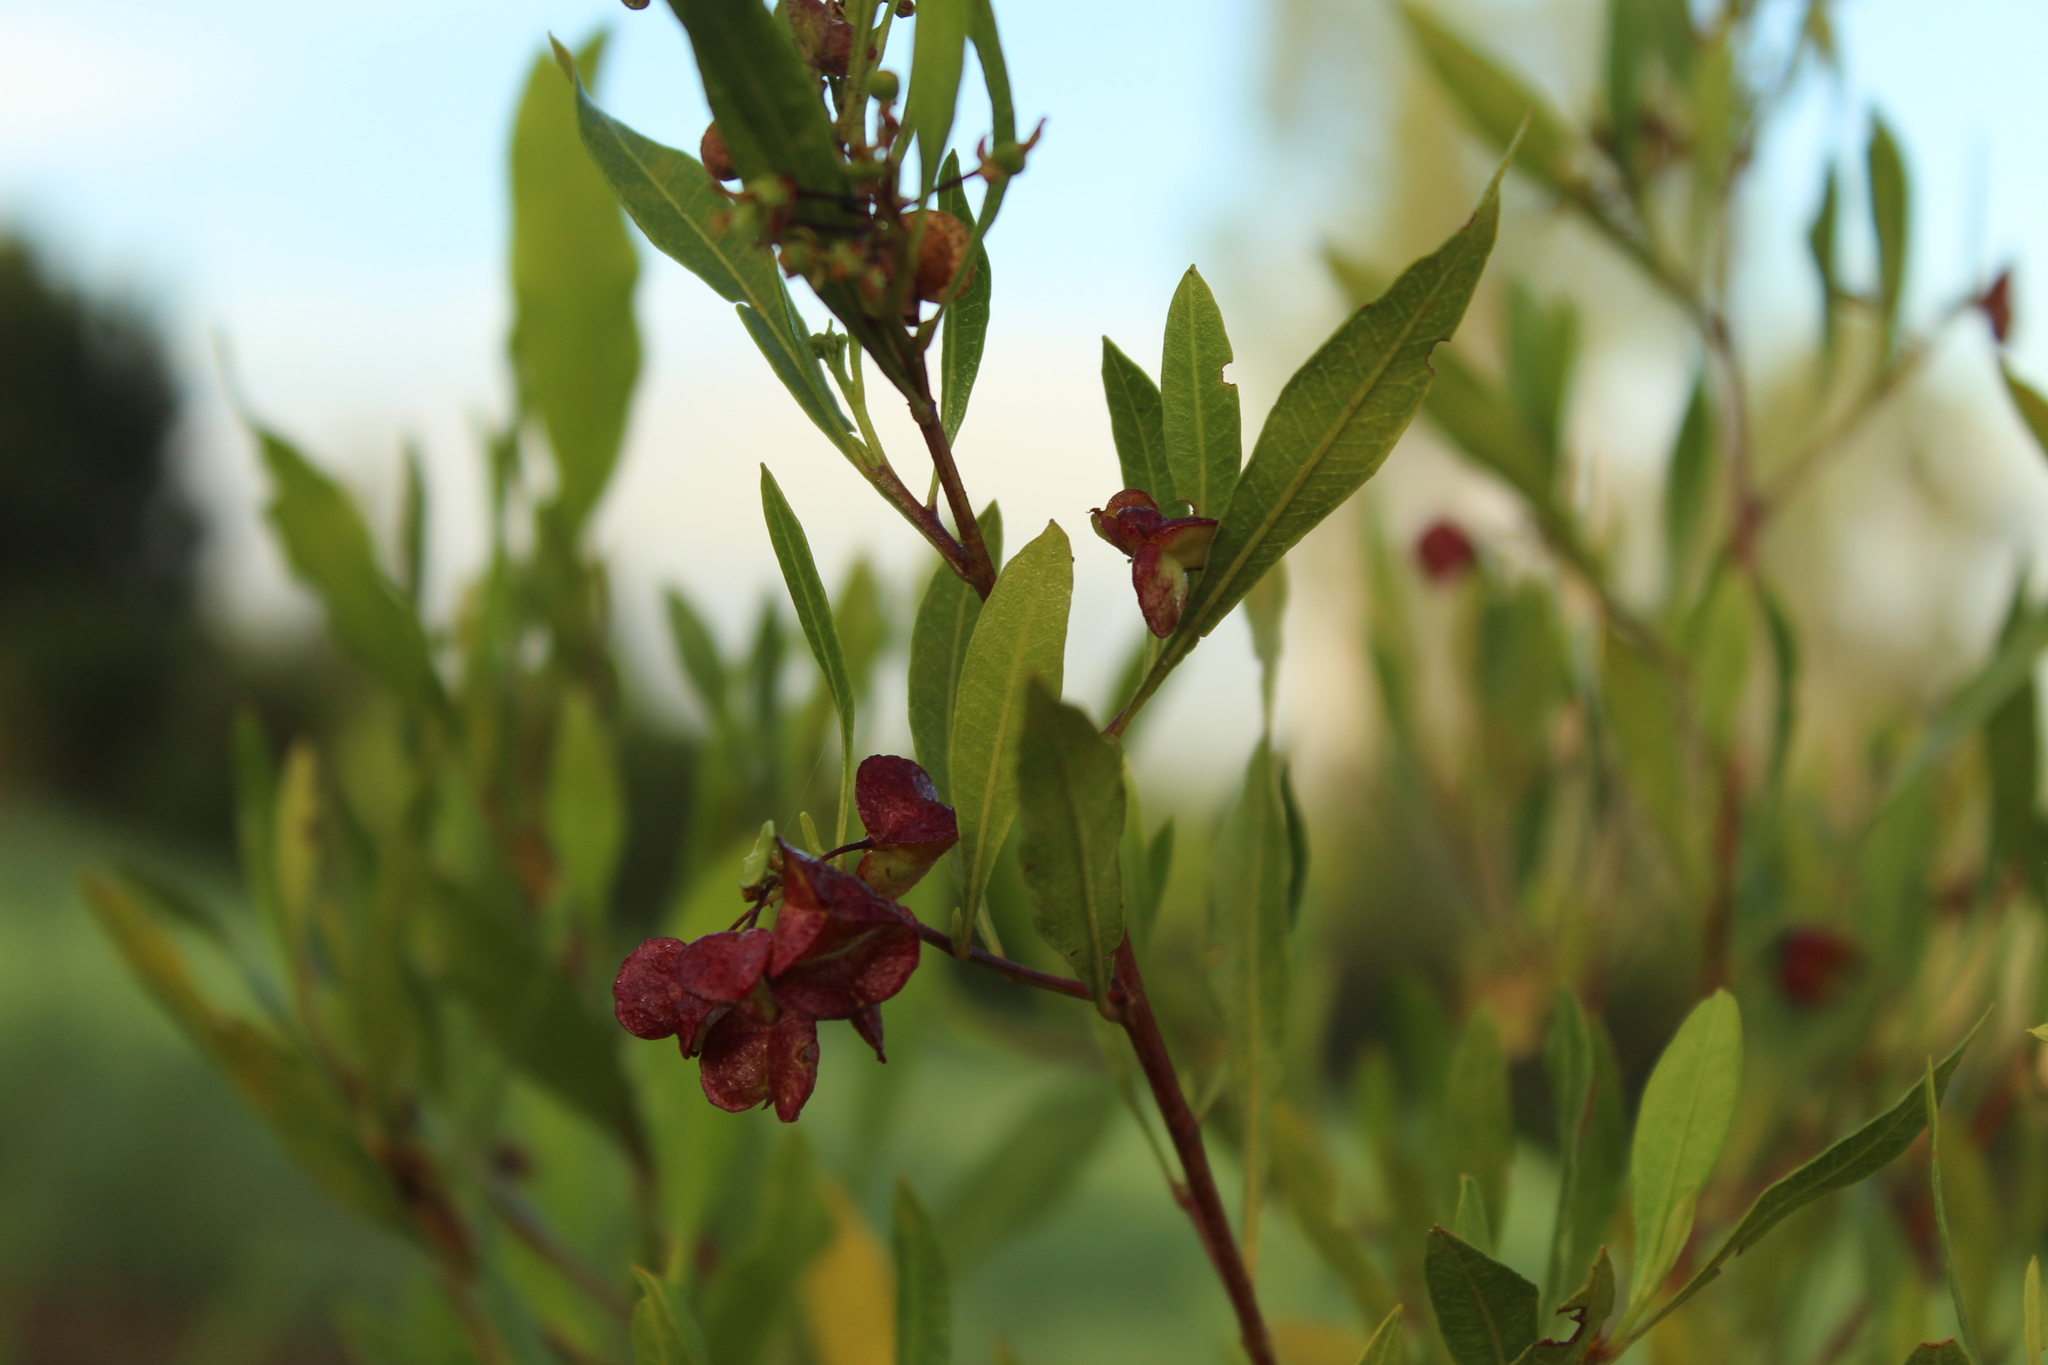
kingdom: Plantae
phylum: Tracheophyta
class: Magnoliopsida
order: Sapindales
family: Sapindaceae
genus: Dodonaea
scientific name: Dodonaea viscosa
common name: Hopbush
